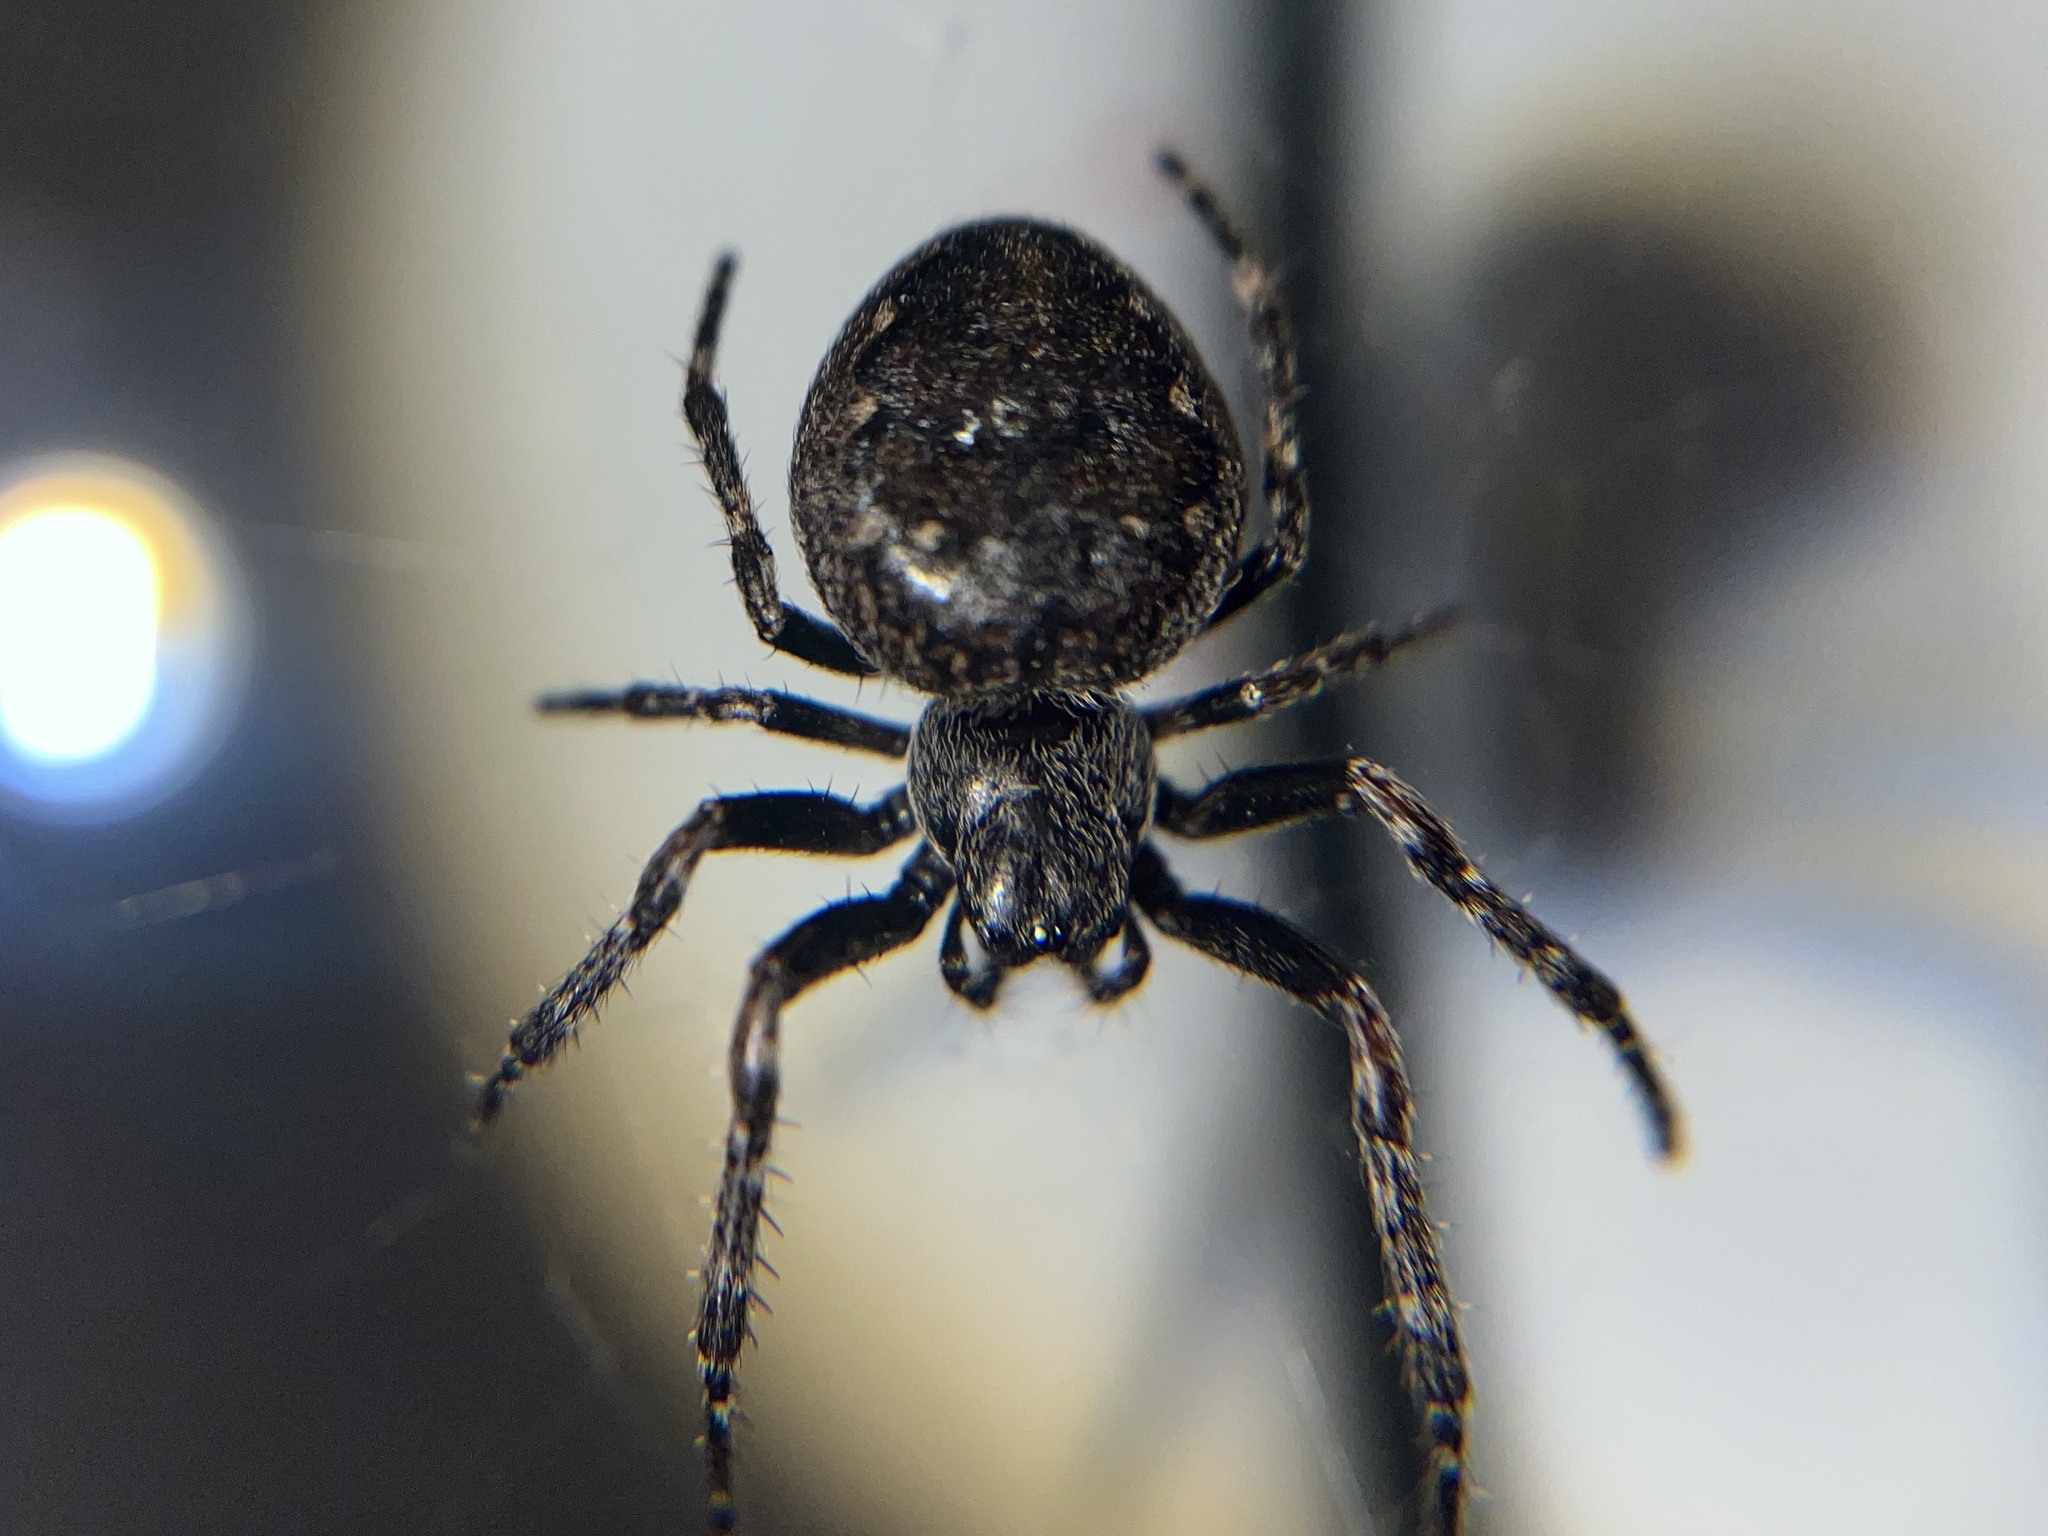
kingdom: Animalia
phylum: Arthropoda
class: Arachnida
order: Araneae
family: Araneidae
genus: Nuctenea
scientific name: Nuctenea umbratica
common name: Toad spider
